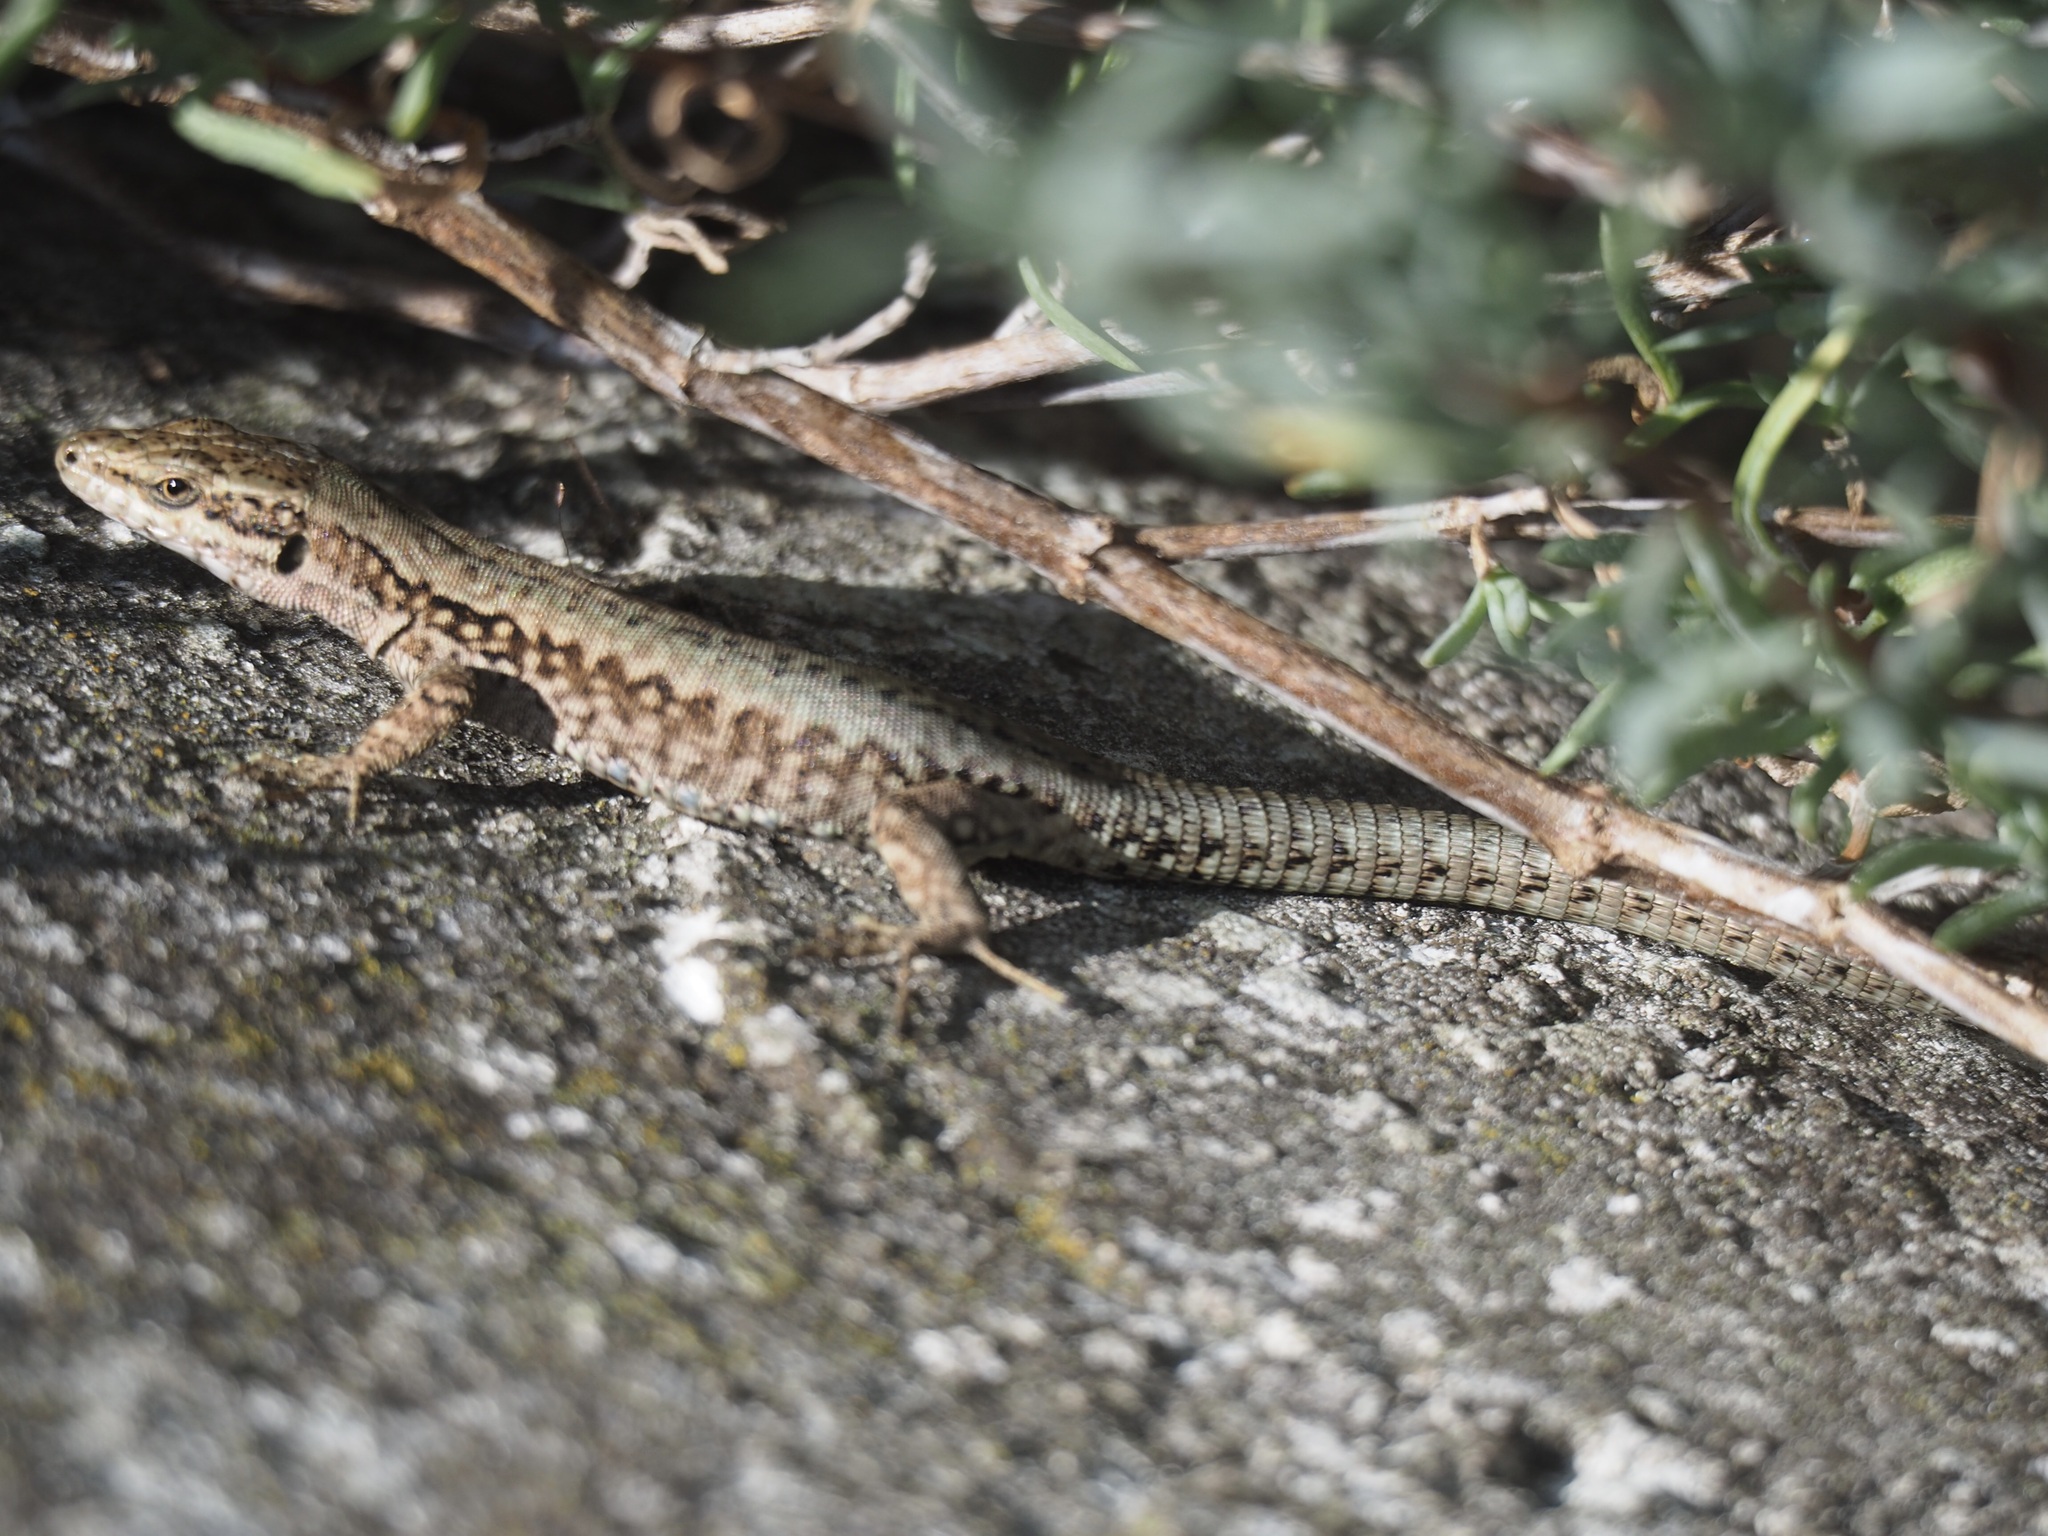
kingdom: Animalia
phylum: Chordata
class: Squamata
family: Lacertidae
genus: Podarcis
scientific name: Podarcis muralis
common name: Common wall lizard
